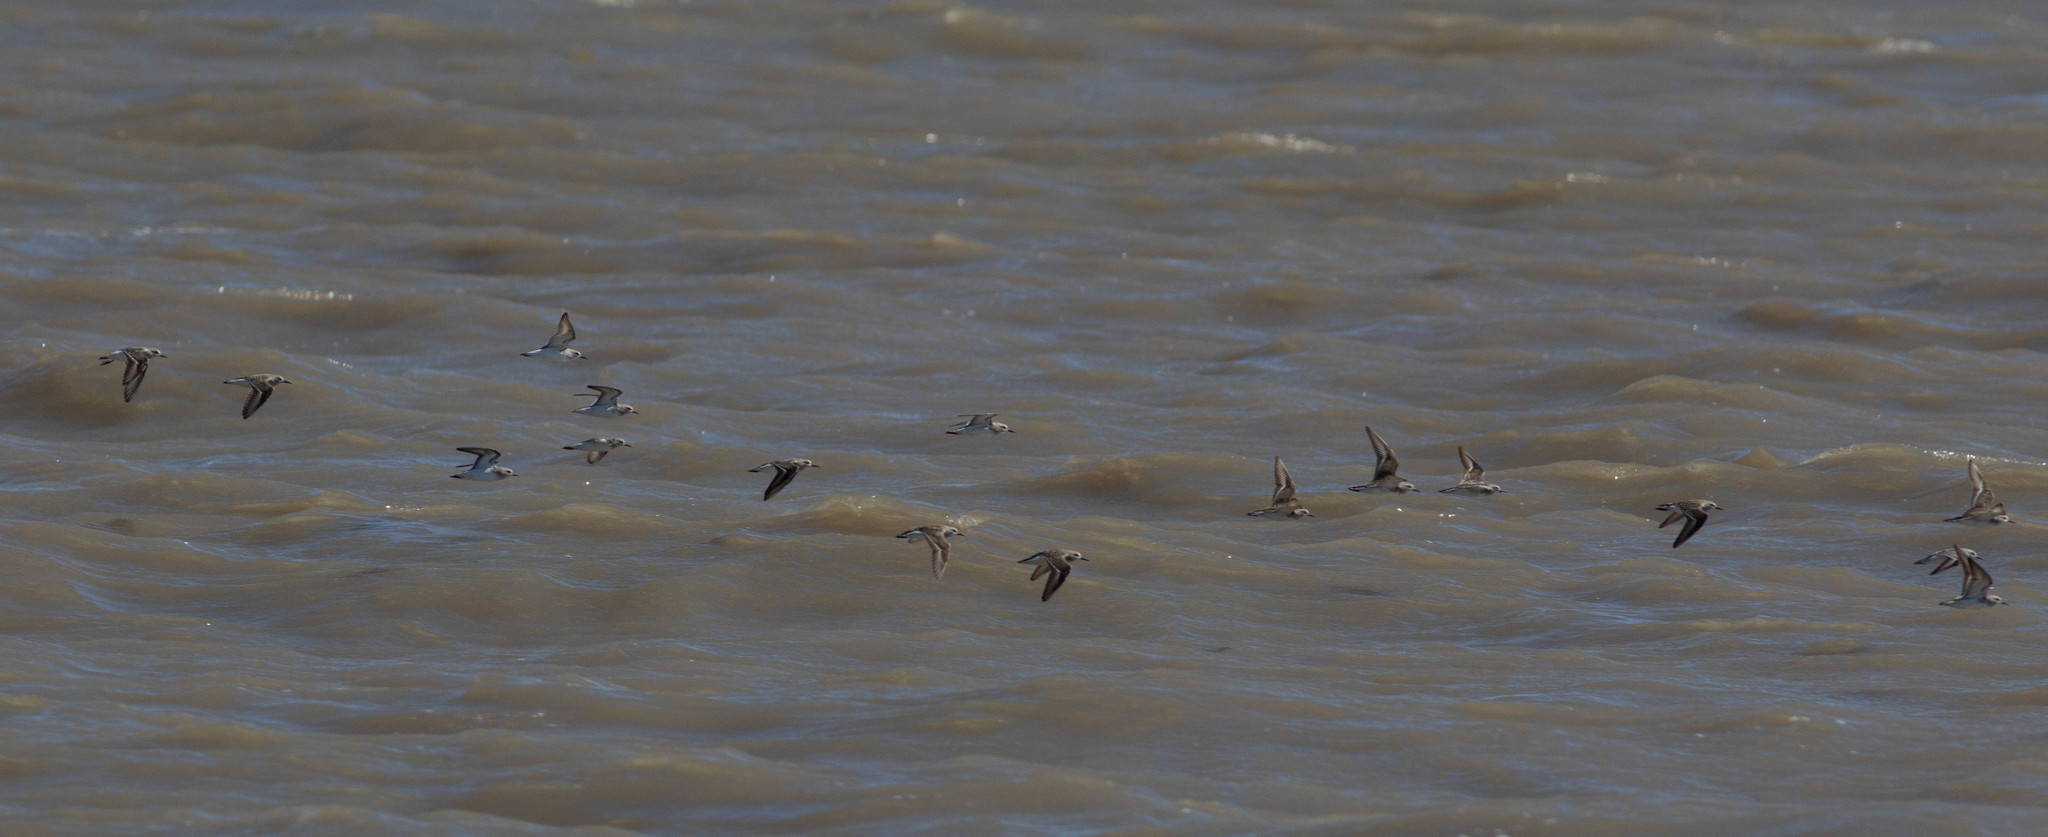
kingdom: Animalia
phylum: Chordata
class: Aves
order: Charadriiformes
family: Scolopacidae
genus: Calidris
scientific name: Calidris pusilla
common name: Semipalmated sandpiper
